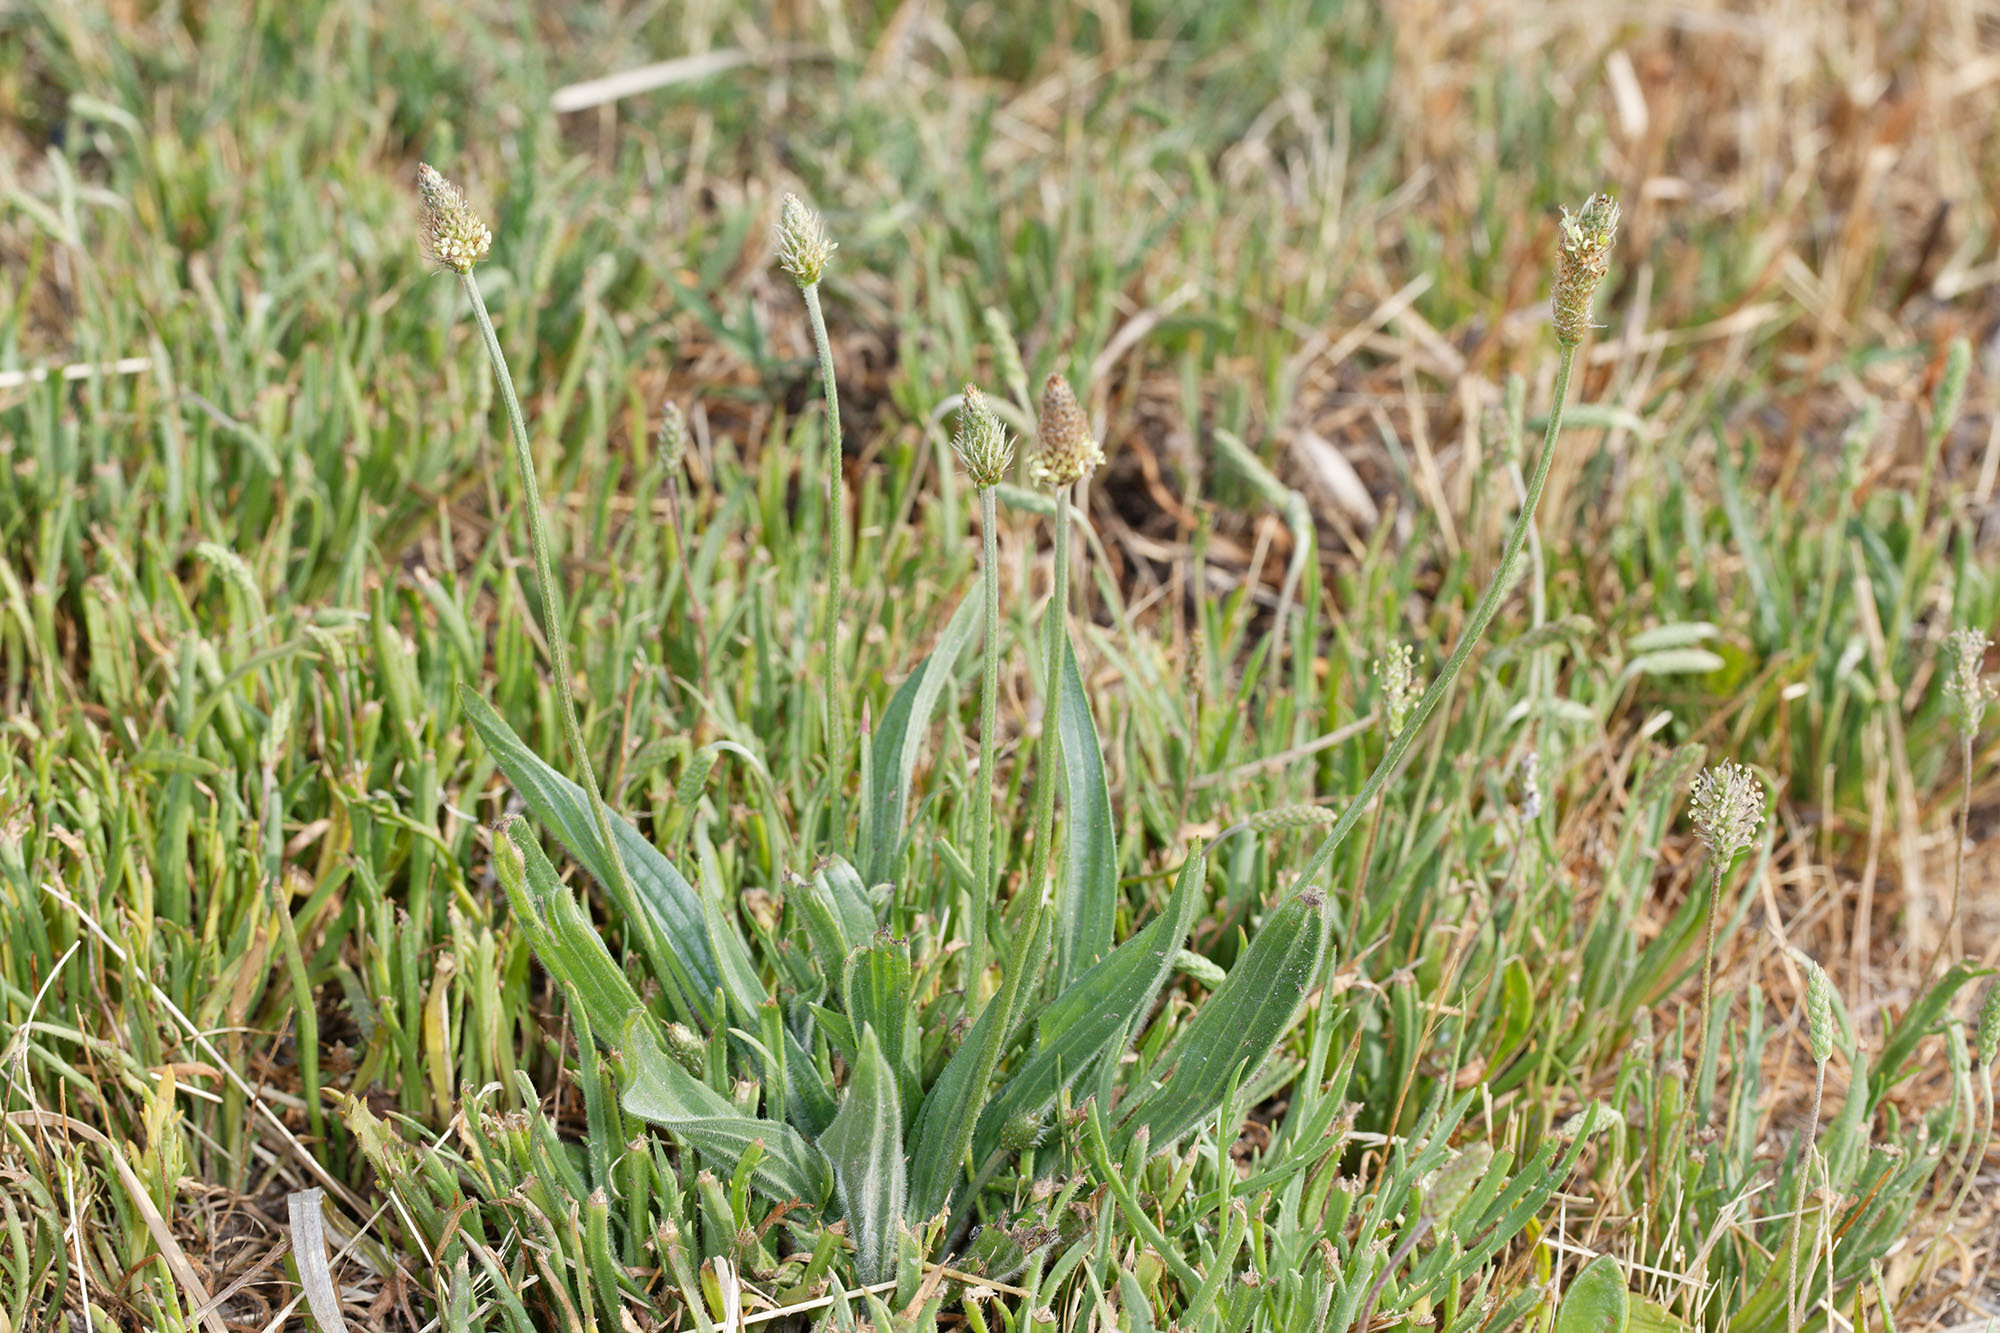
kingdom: Plantae
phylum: Tracheophyta
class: Magnoliopsida
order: Lamiales
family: Plantaginaceae
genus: Plantago
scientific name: Plantago lanceolata
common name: Ribwort plantain
